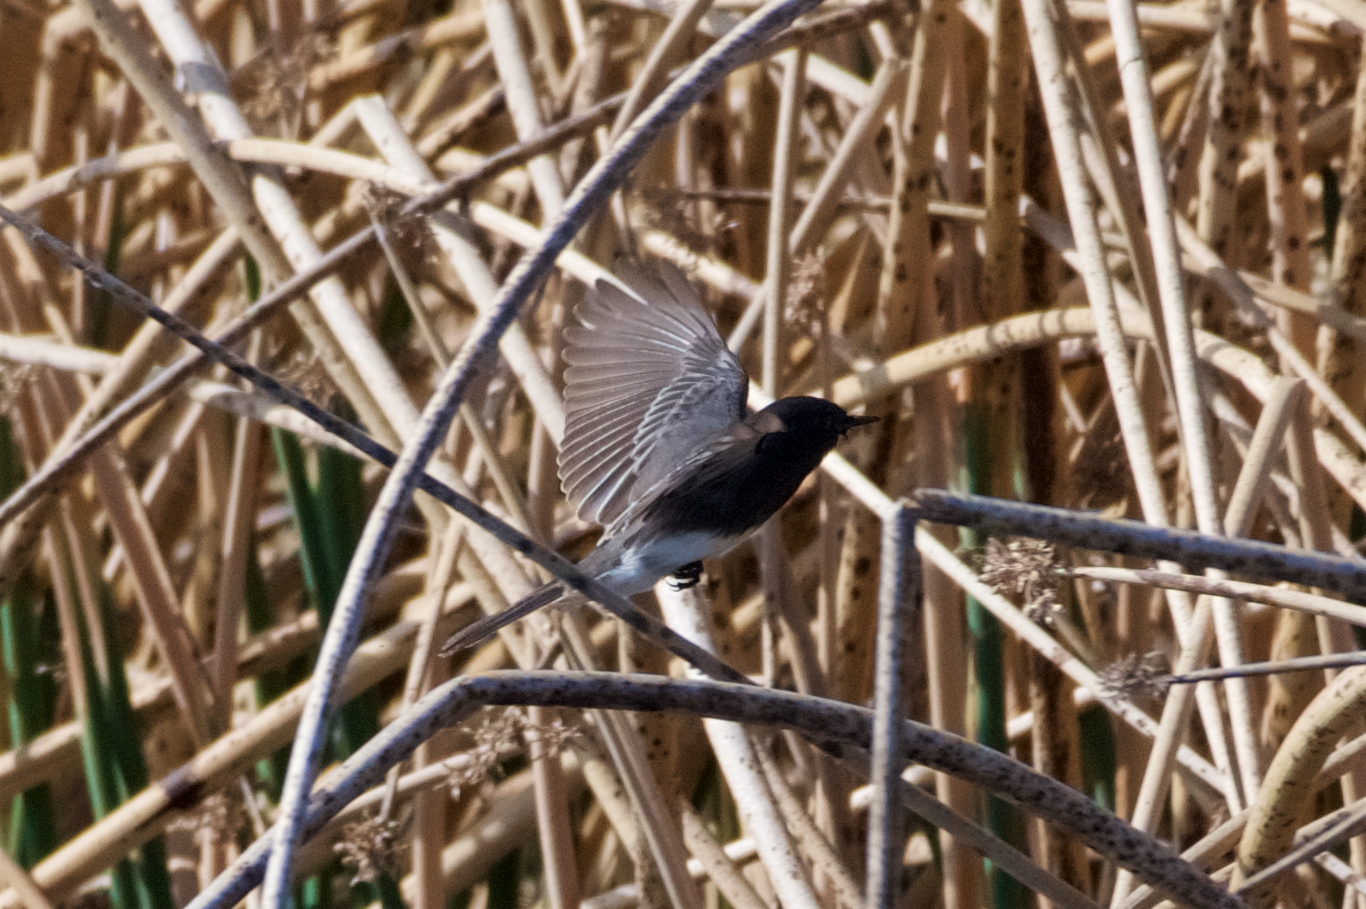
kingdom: Animalia
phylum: Chordata
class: Aves
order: Passeriformes
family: Tyrannidae
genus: Sayornis
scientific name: Sayornis nigricans
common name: Black phoebe
